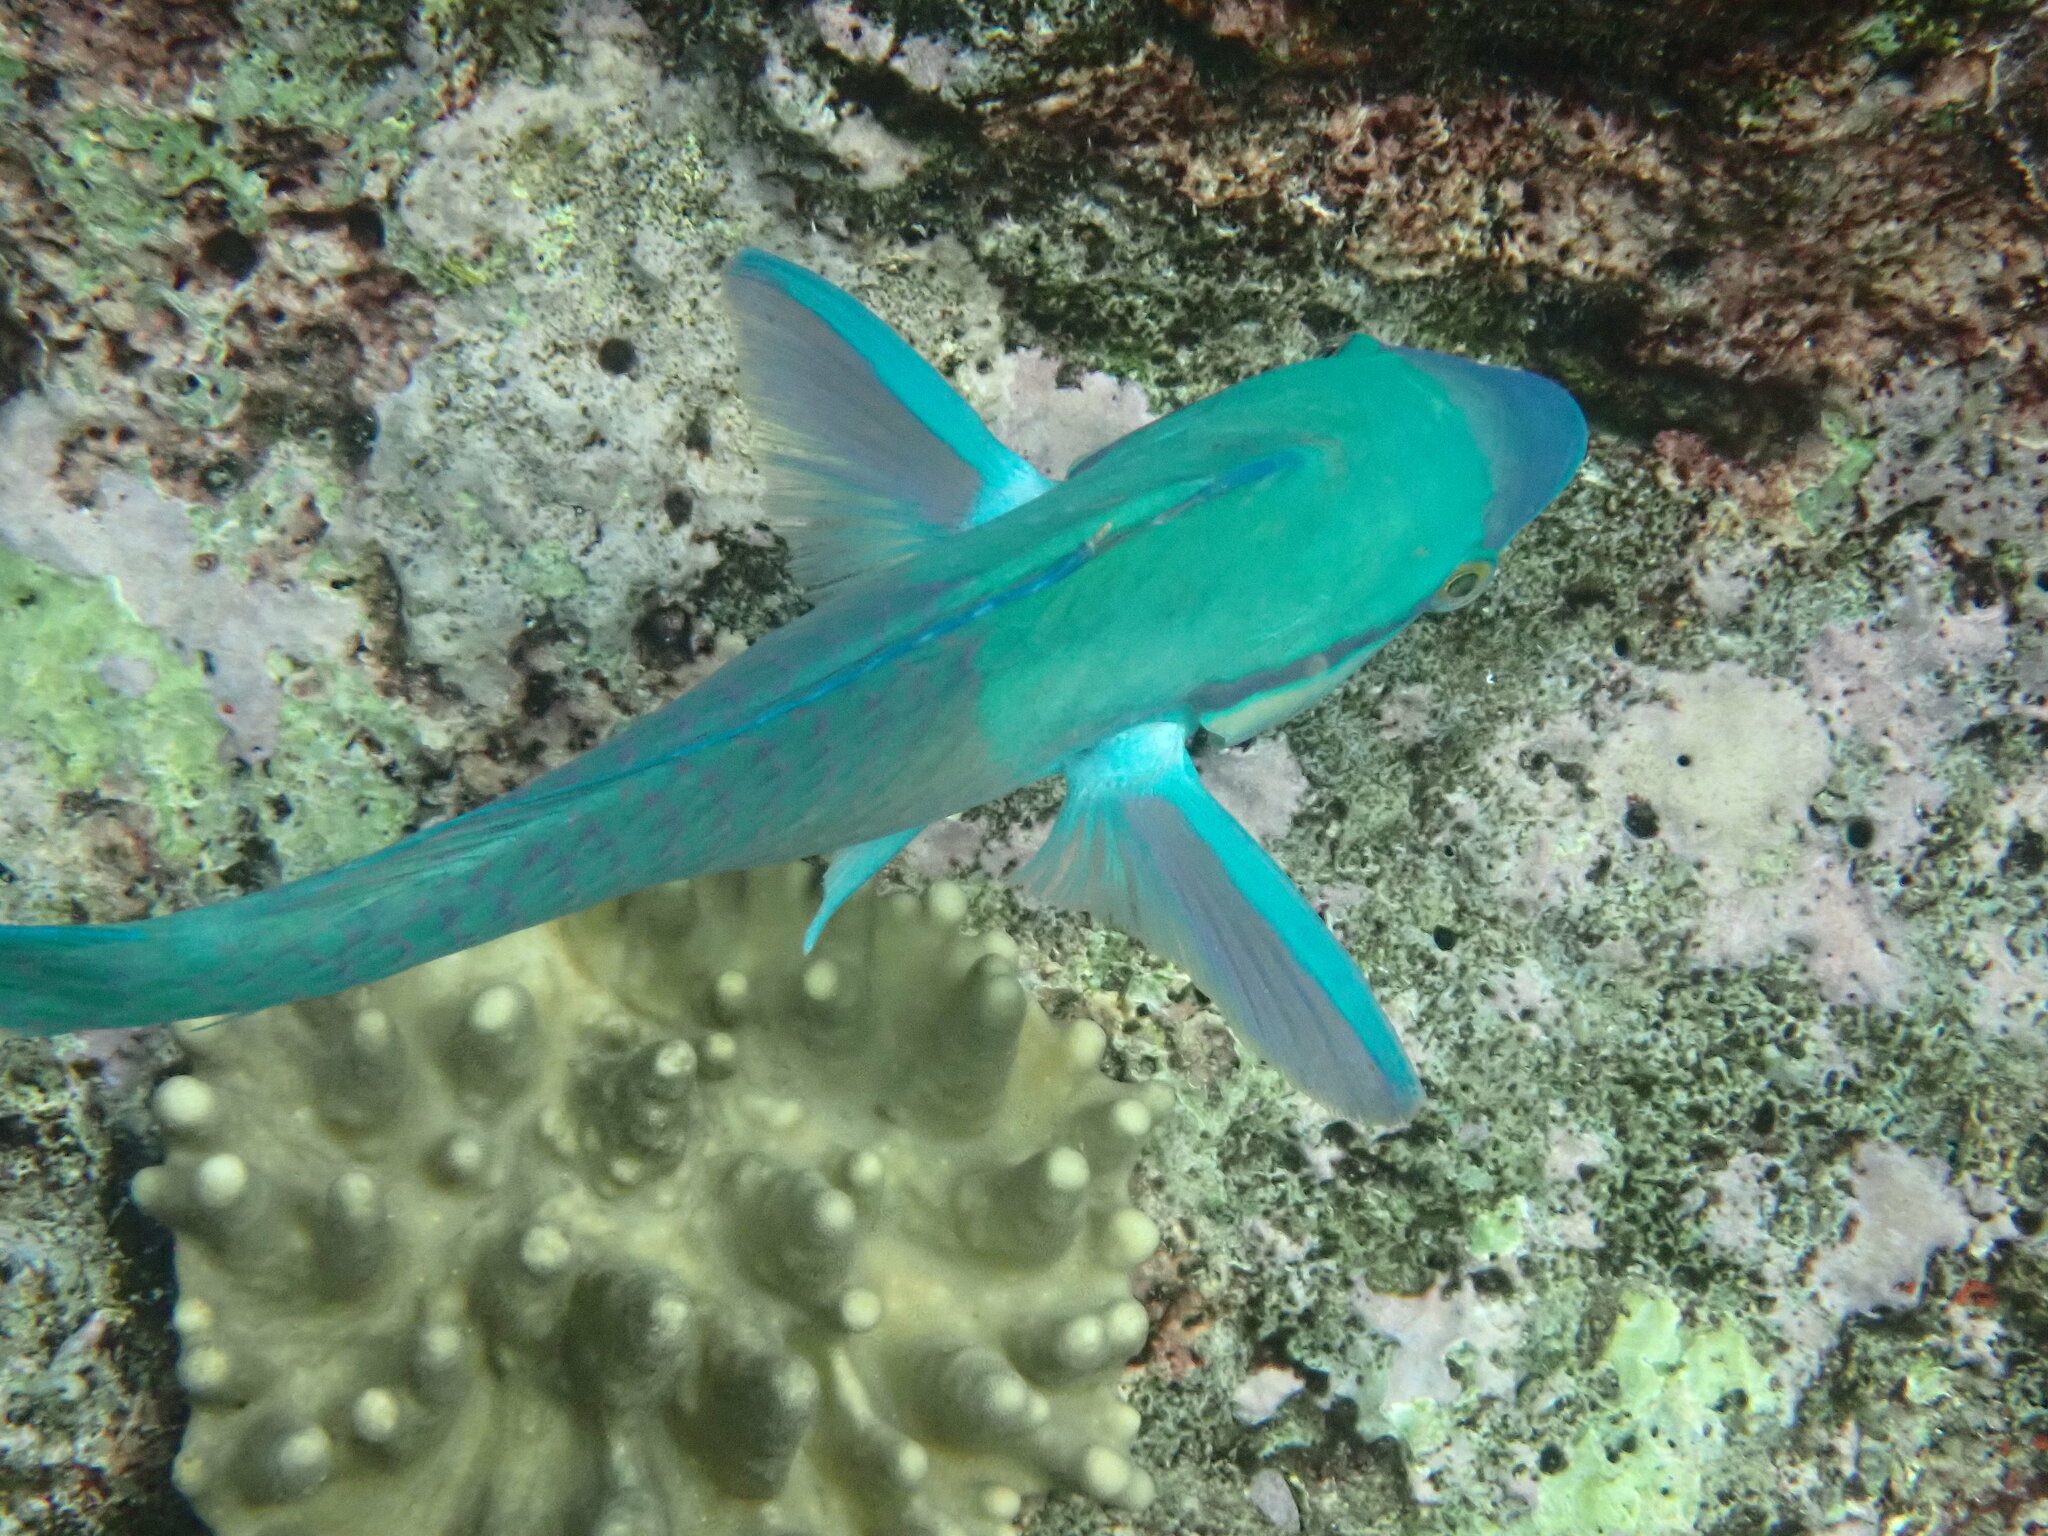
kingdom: Animalia
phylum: Chordata
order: Perciformes
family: Scaridae
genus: Scarus
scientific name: Scarus dimidiatus
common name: Yellowbarred parrotfish
